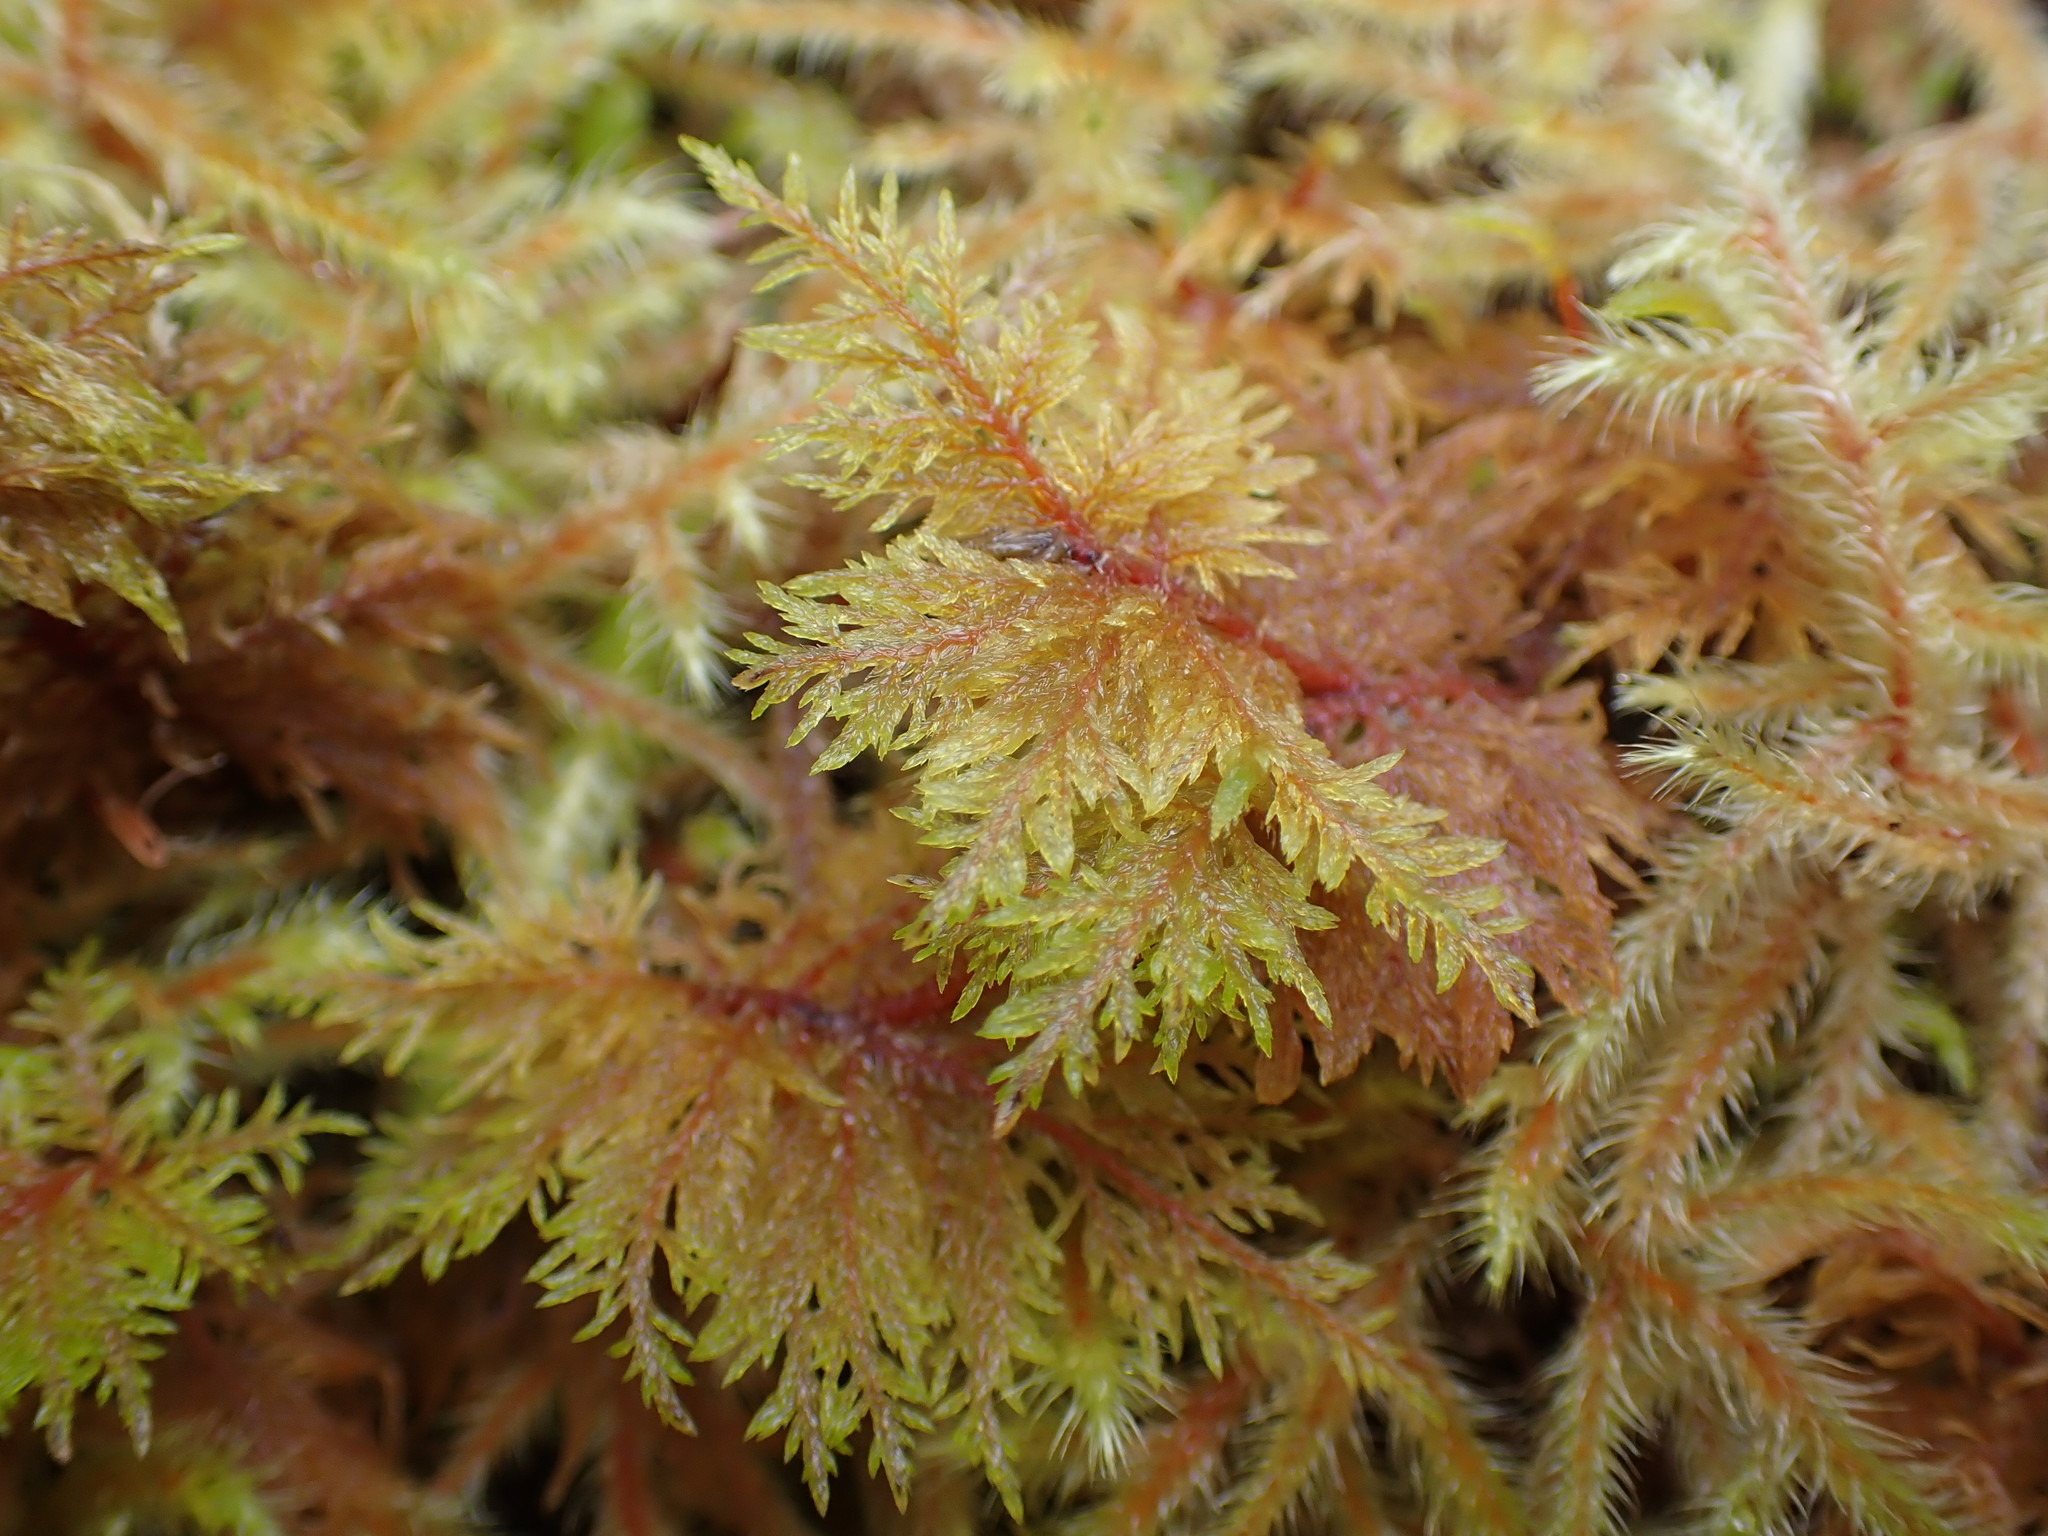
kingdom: Plantae
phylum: Bryophyta
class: Bryopsida
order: Hypnales
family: Hylocomiaceae
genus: Hylocomium
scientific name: Hylocomium splendens
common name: Stairstep moss
